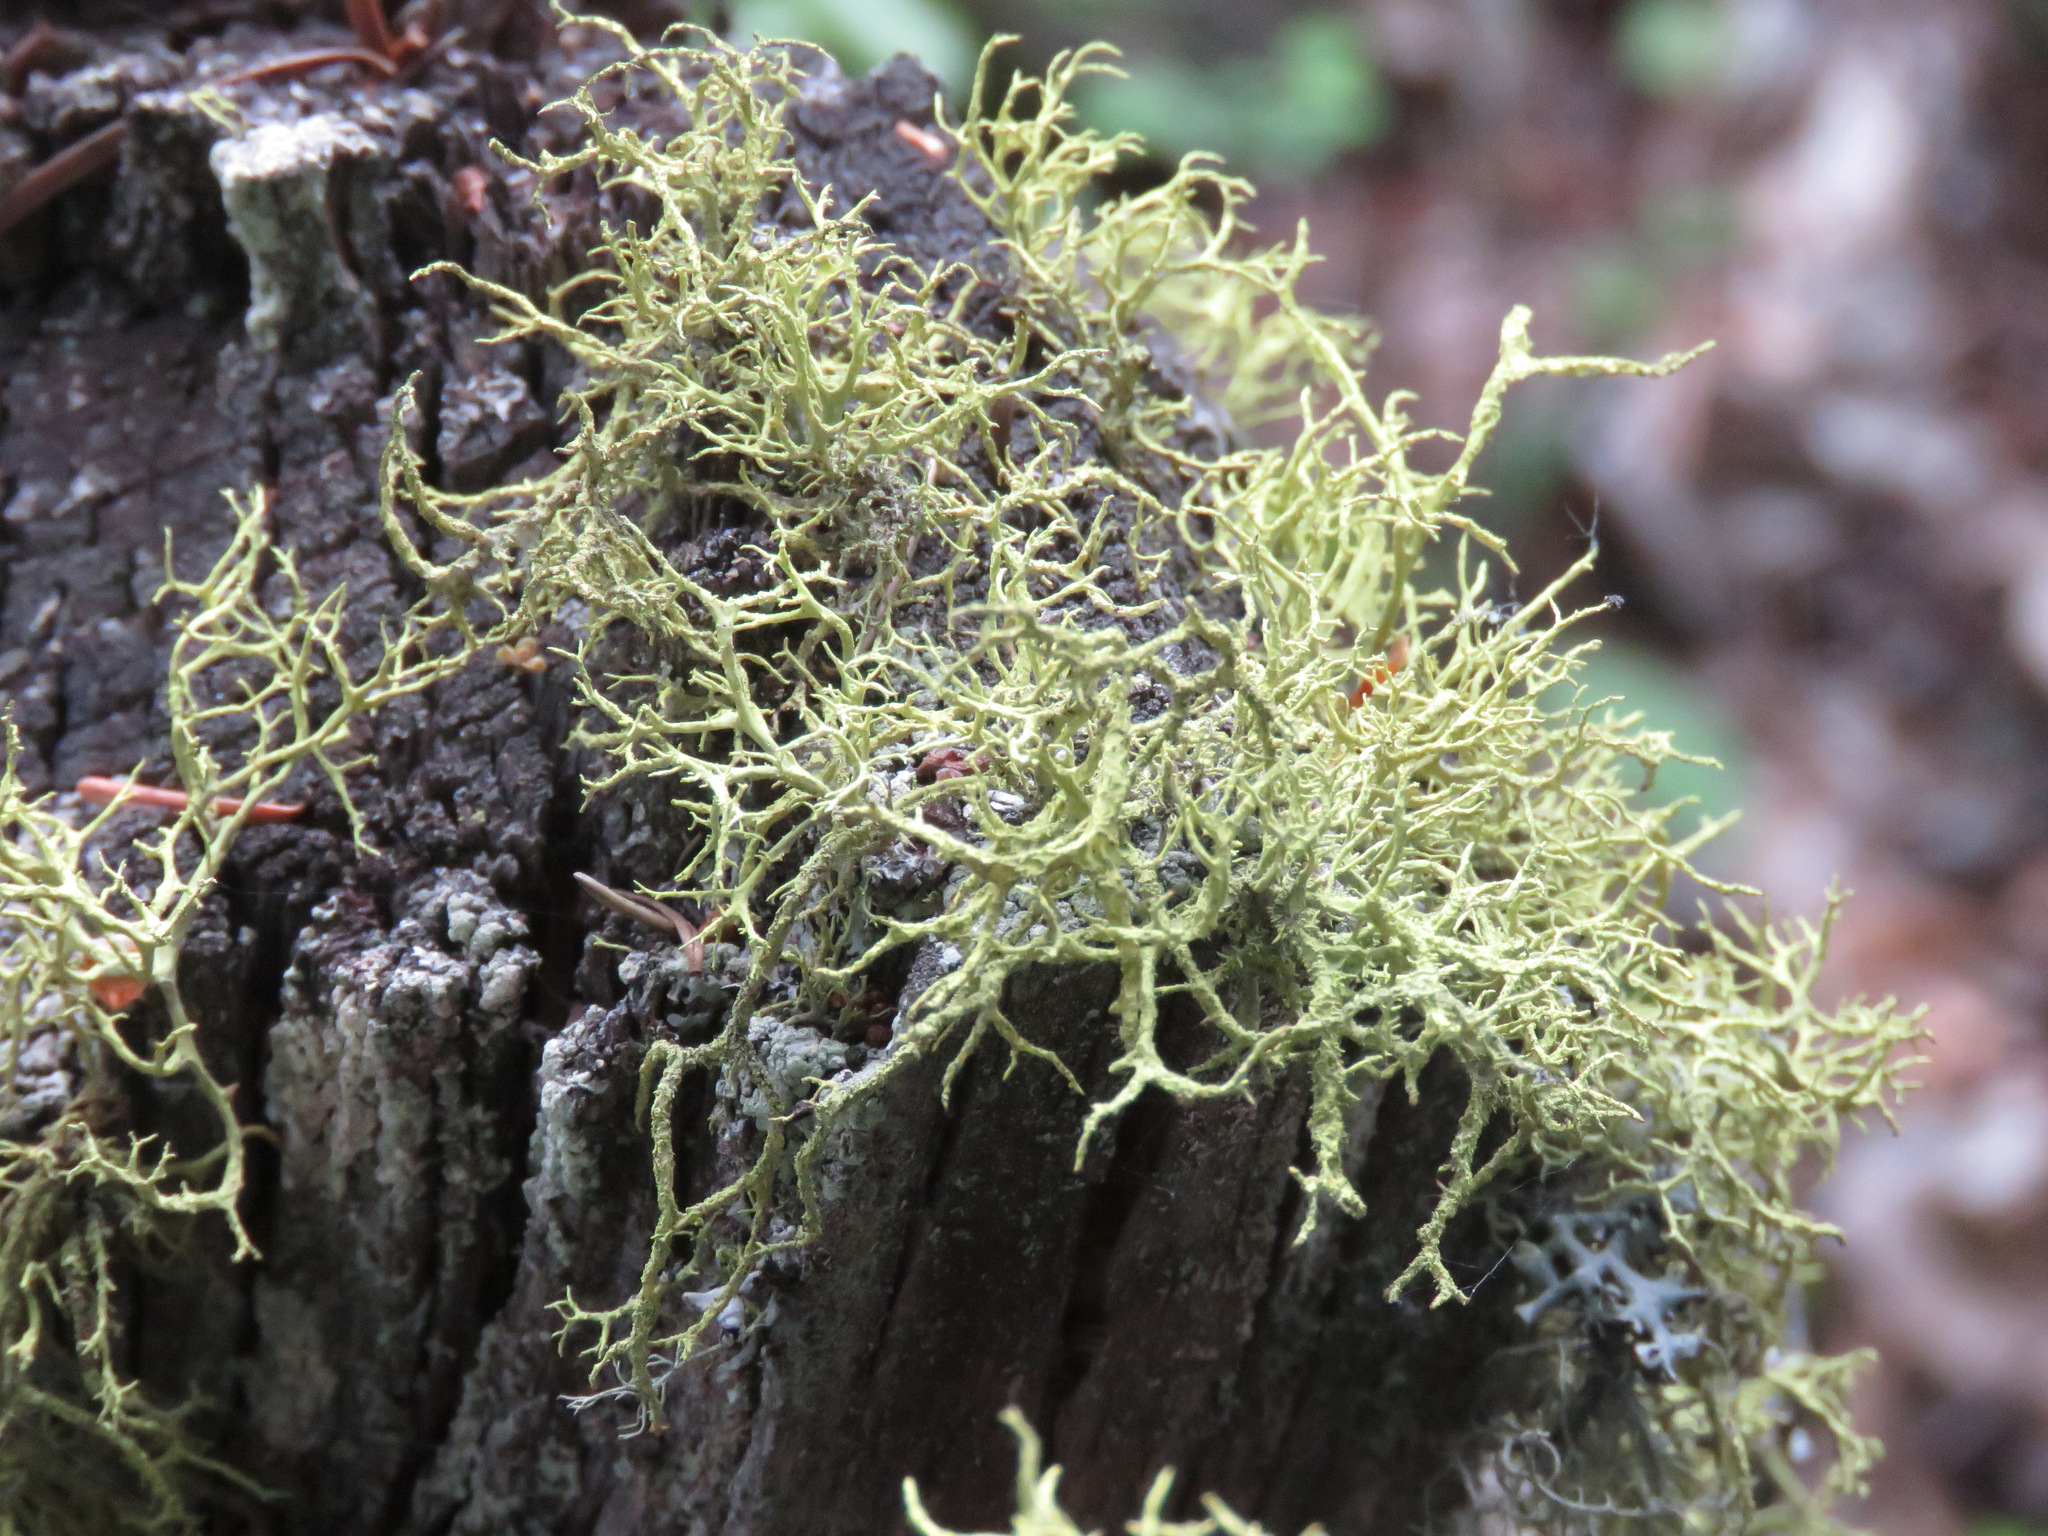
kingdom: Fungi
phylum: Ascomycota
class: Lecanoromycetes
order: Lecanorales
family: Parmeliaceae
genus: Letharia
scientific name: Letharia vulpina
